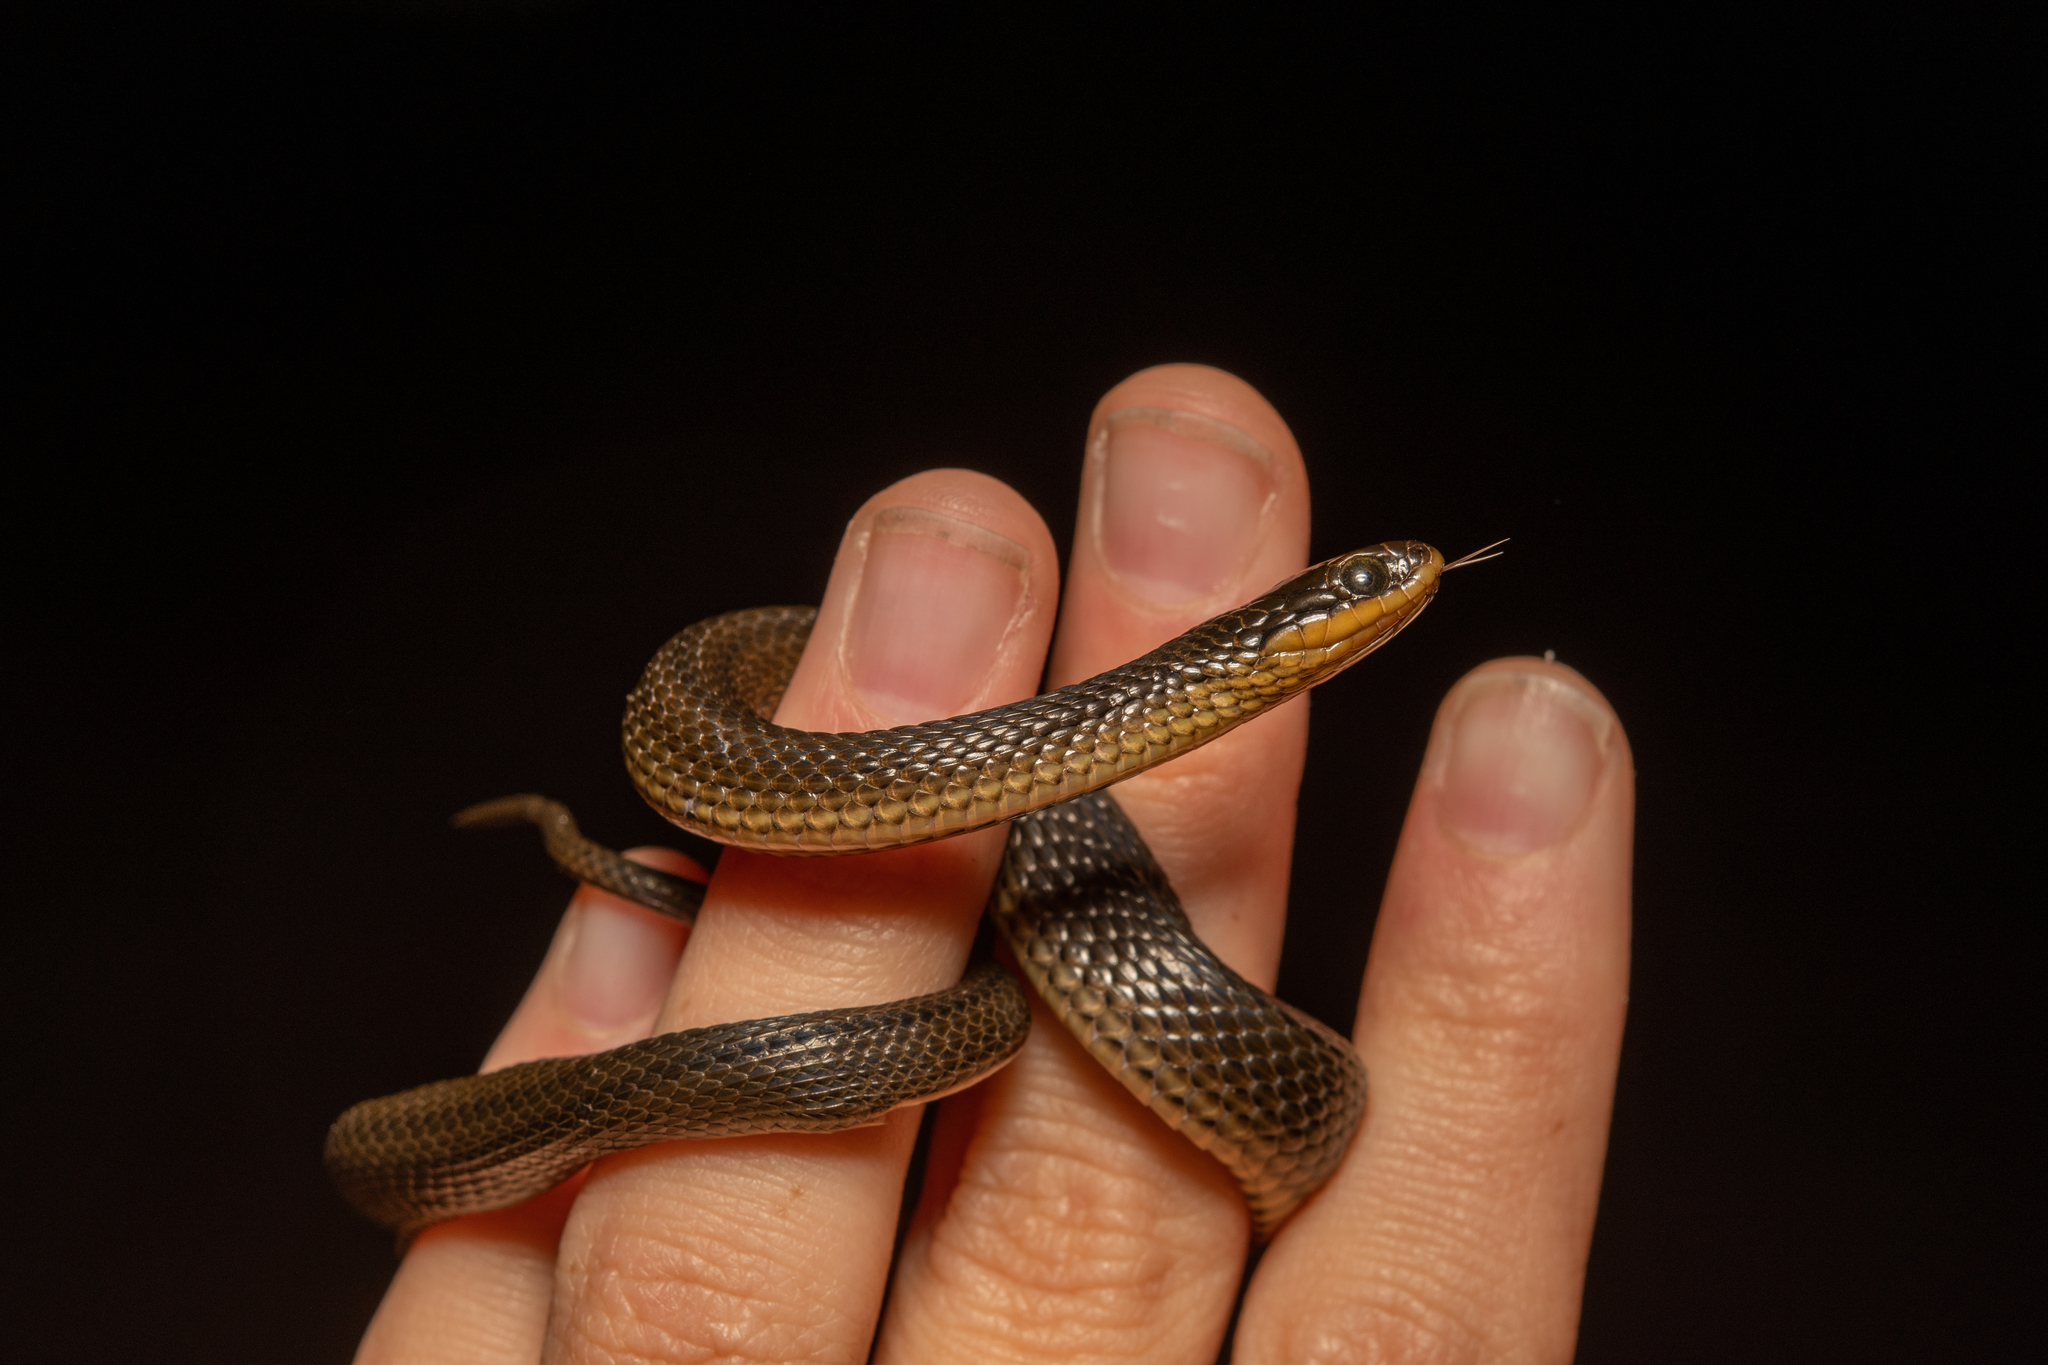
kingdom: Animalia
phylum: Chordata
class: Squamata
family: Colubridae
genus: Liodytes
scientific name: Liodytes rigida
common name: Crayfish snake
